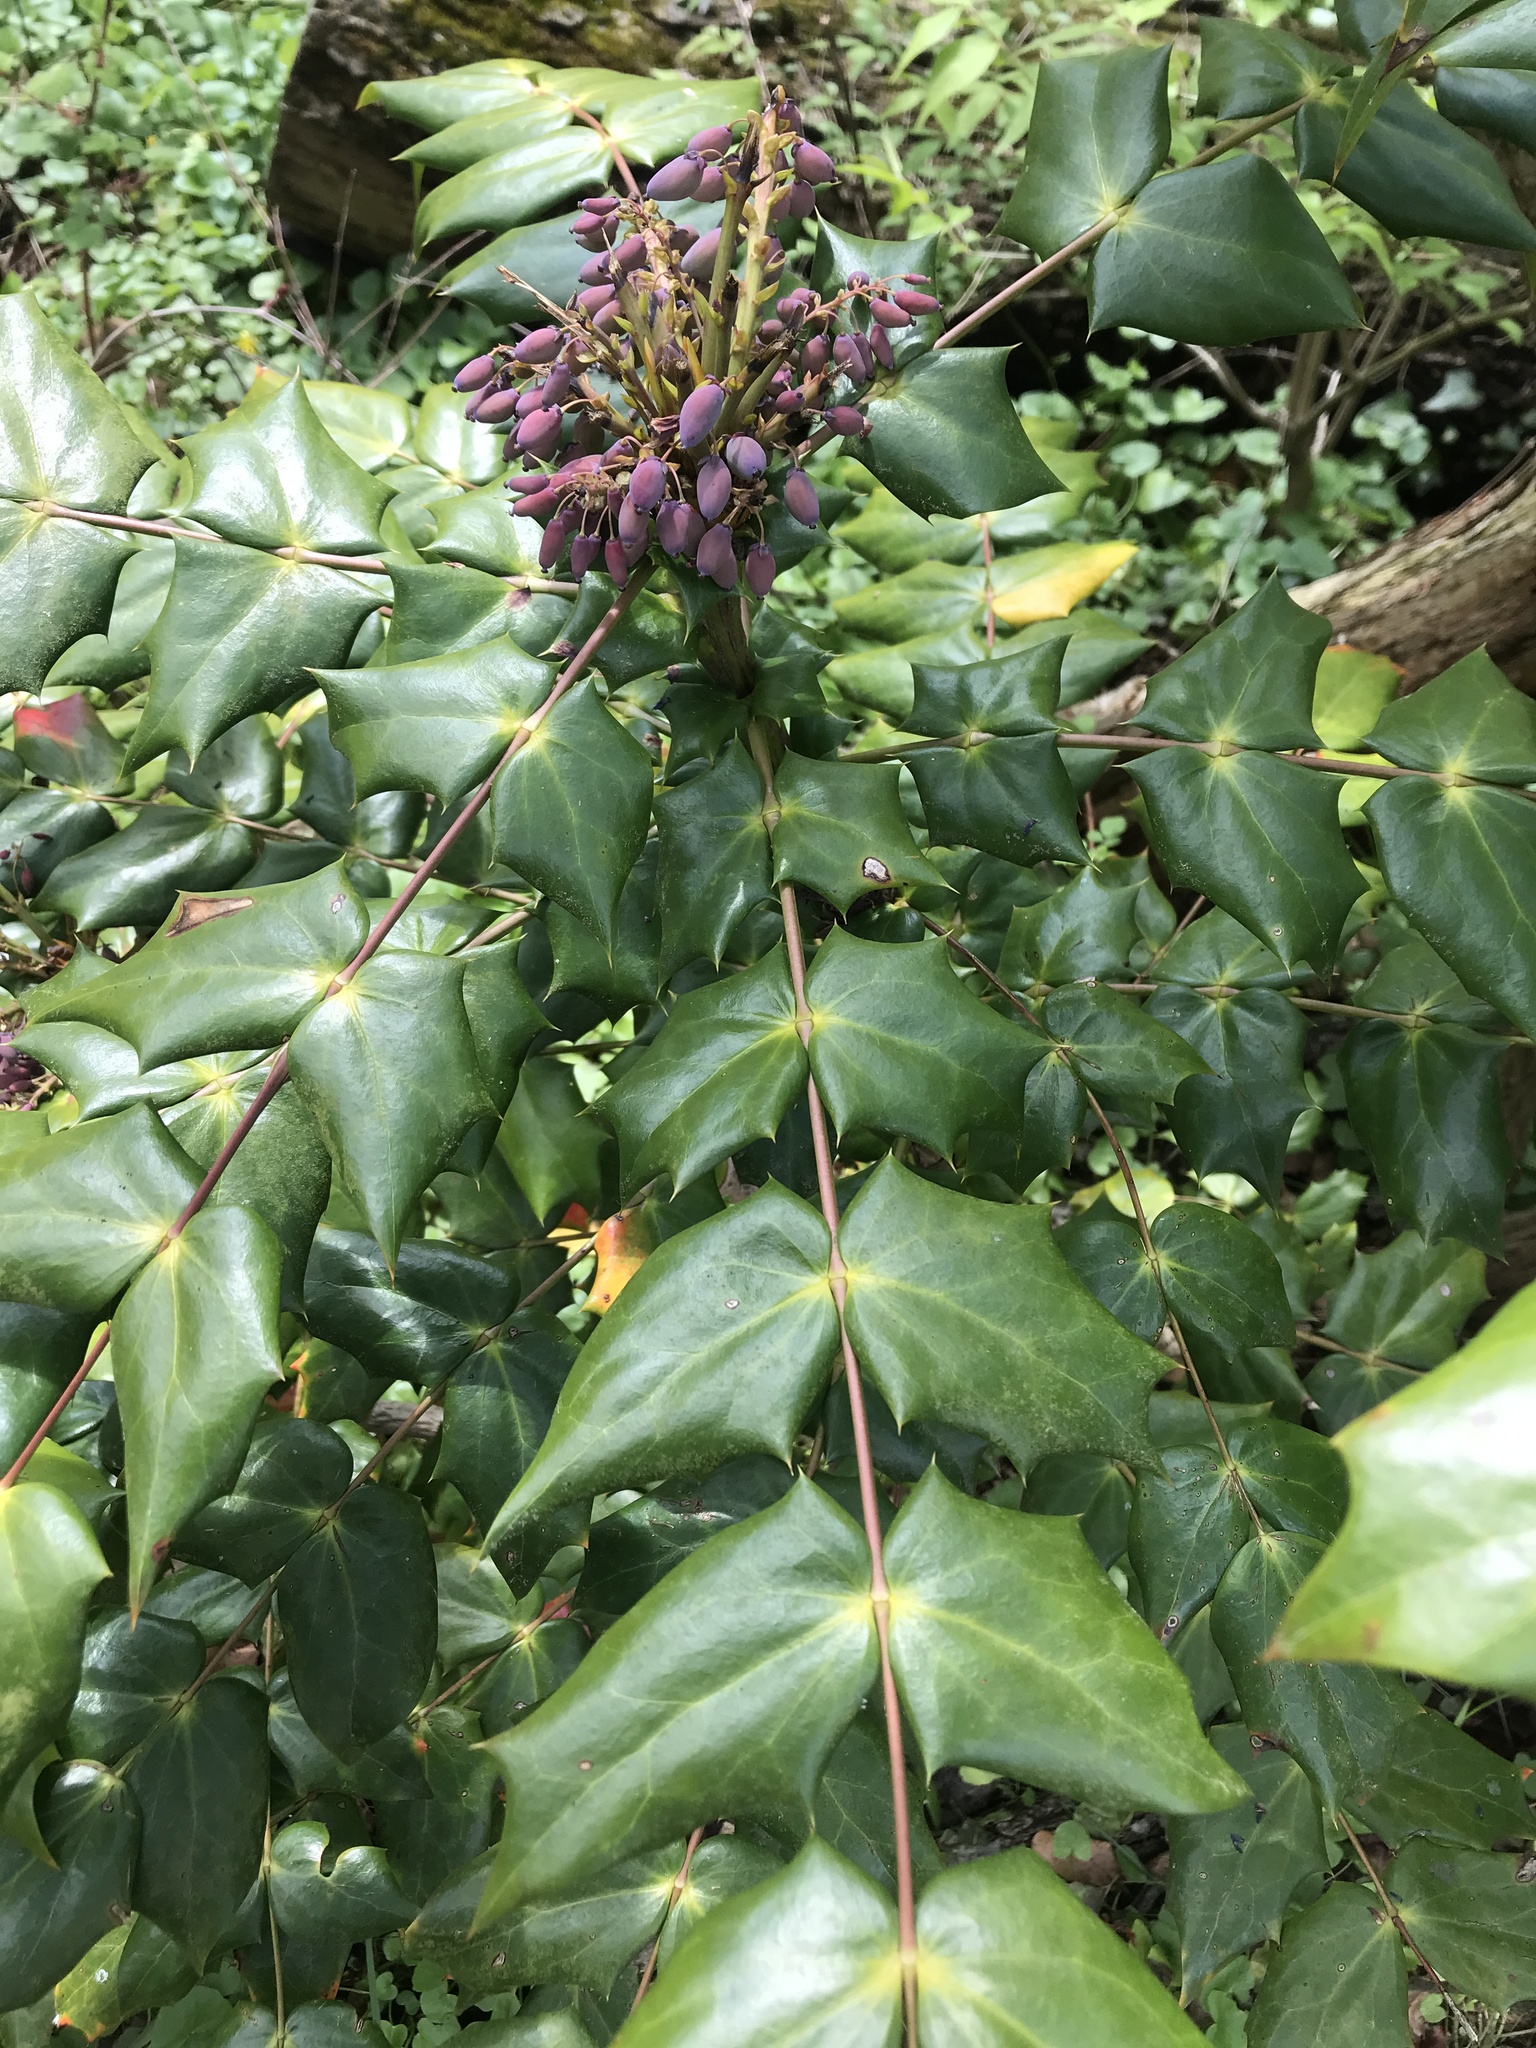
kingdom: Plantae
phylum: Tracheophyta
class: Magnoliopsida
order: Ranunculales
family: Berberidaceae
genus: Mahonia
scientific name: Mahonia bealei
